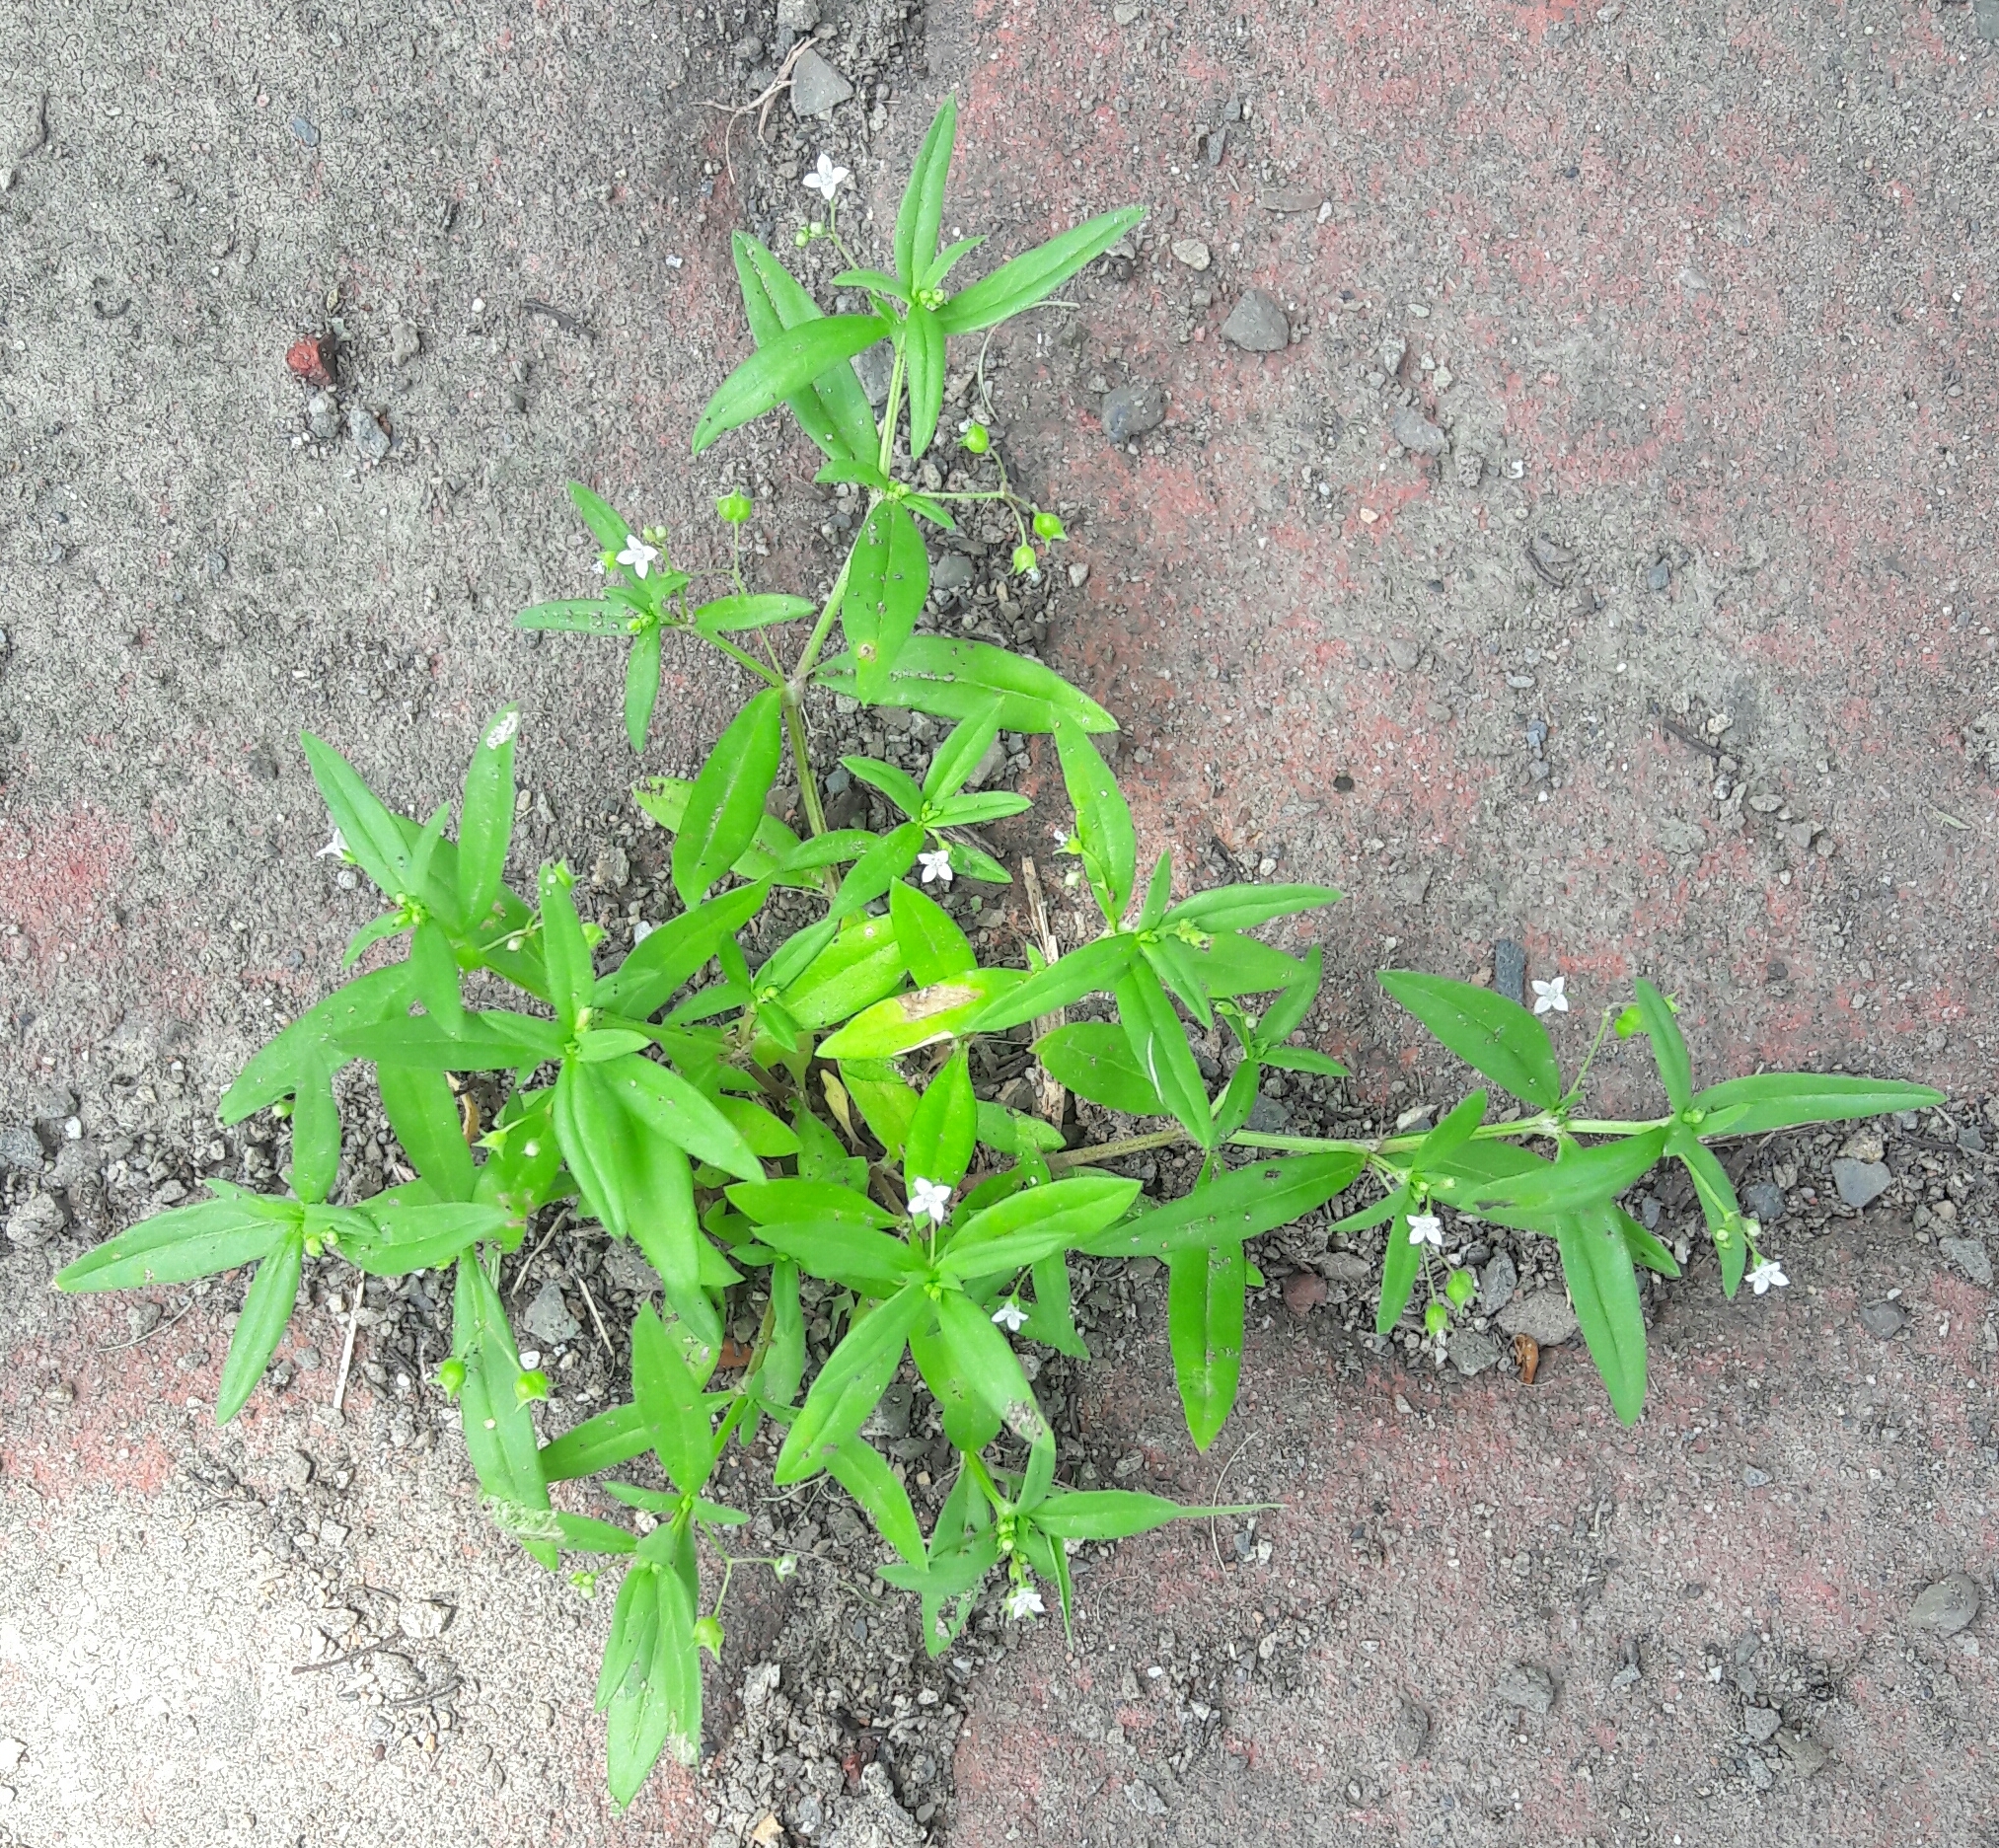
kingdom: Plantae
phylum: Tracheophyta
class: Magnoliopsida
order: Gentianales
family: Rubiaceae
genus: Oldenlandia
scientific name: Oldenlandia corymbosa
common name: Flat-top mille graines
